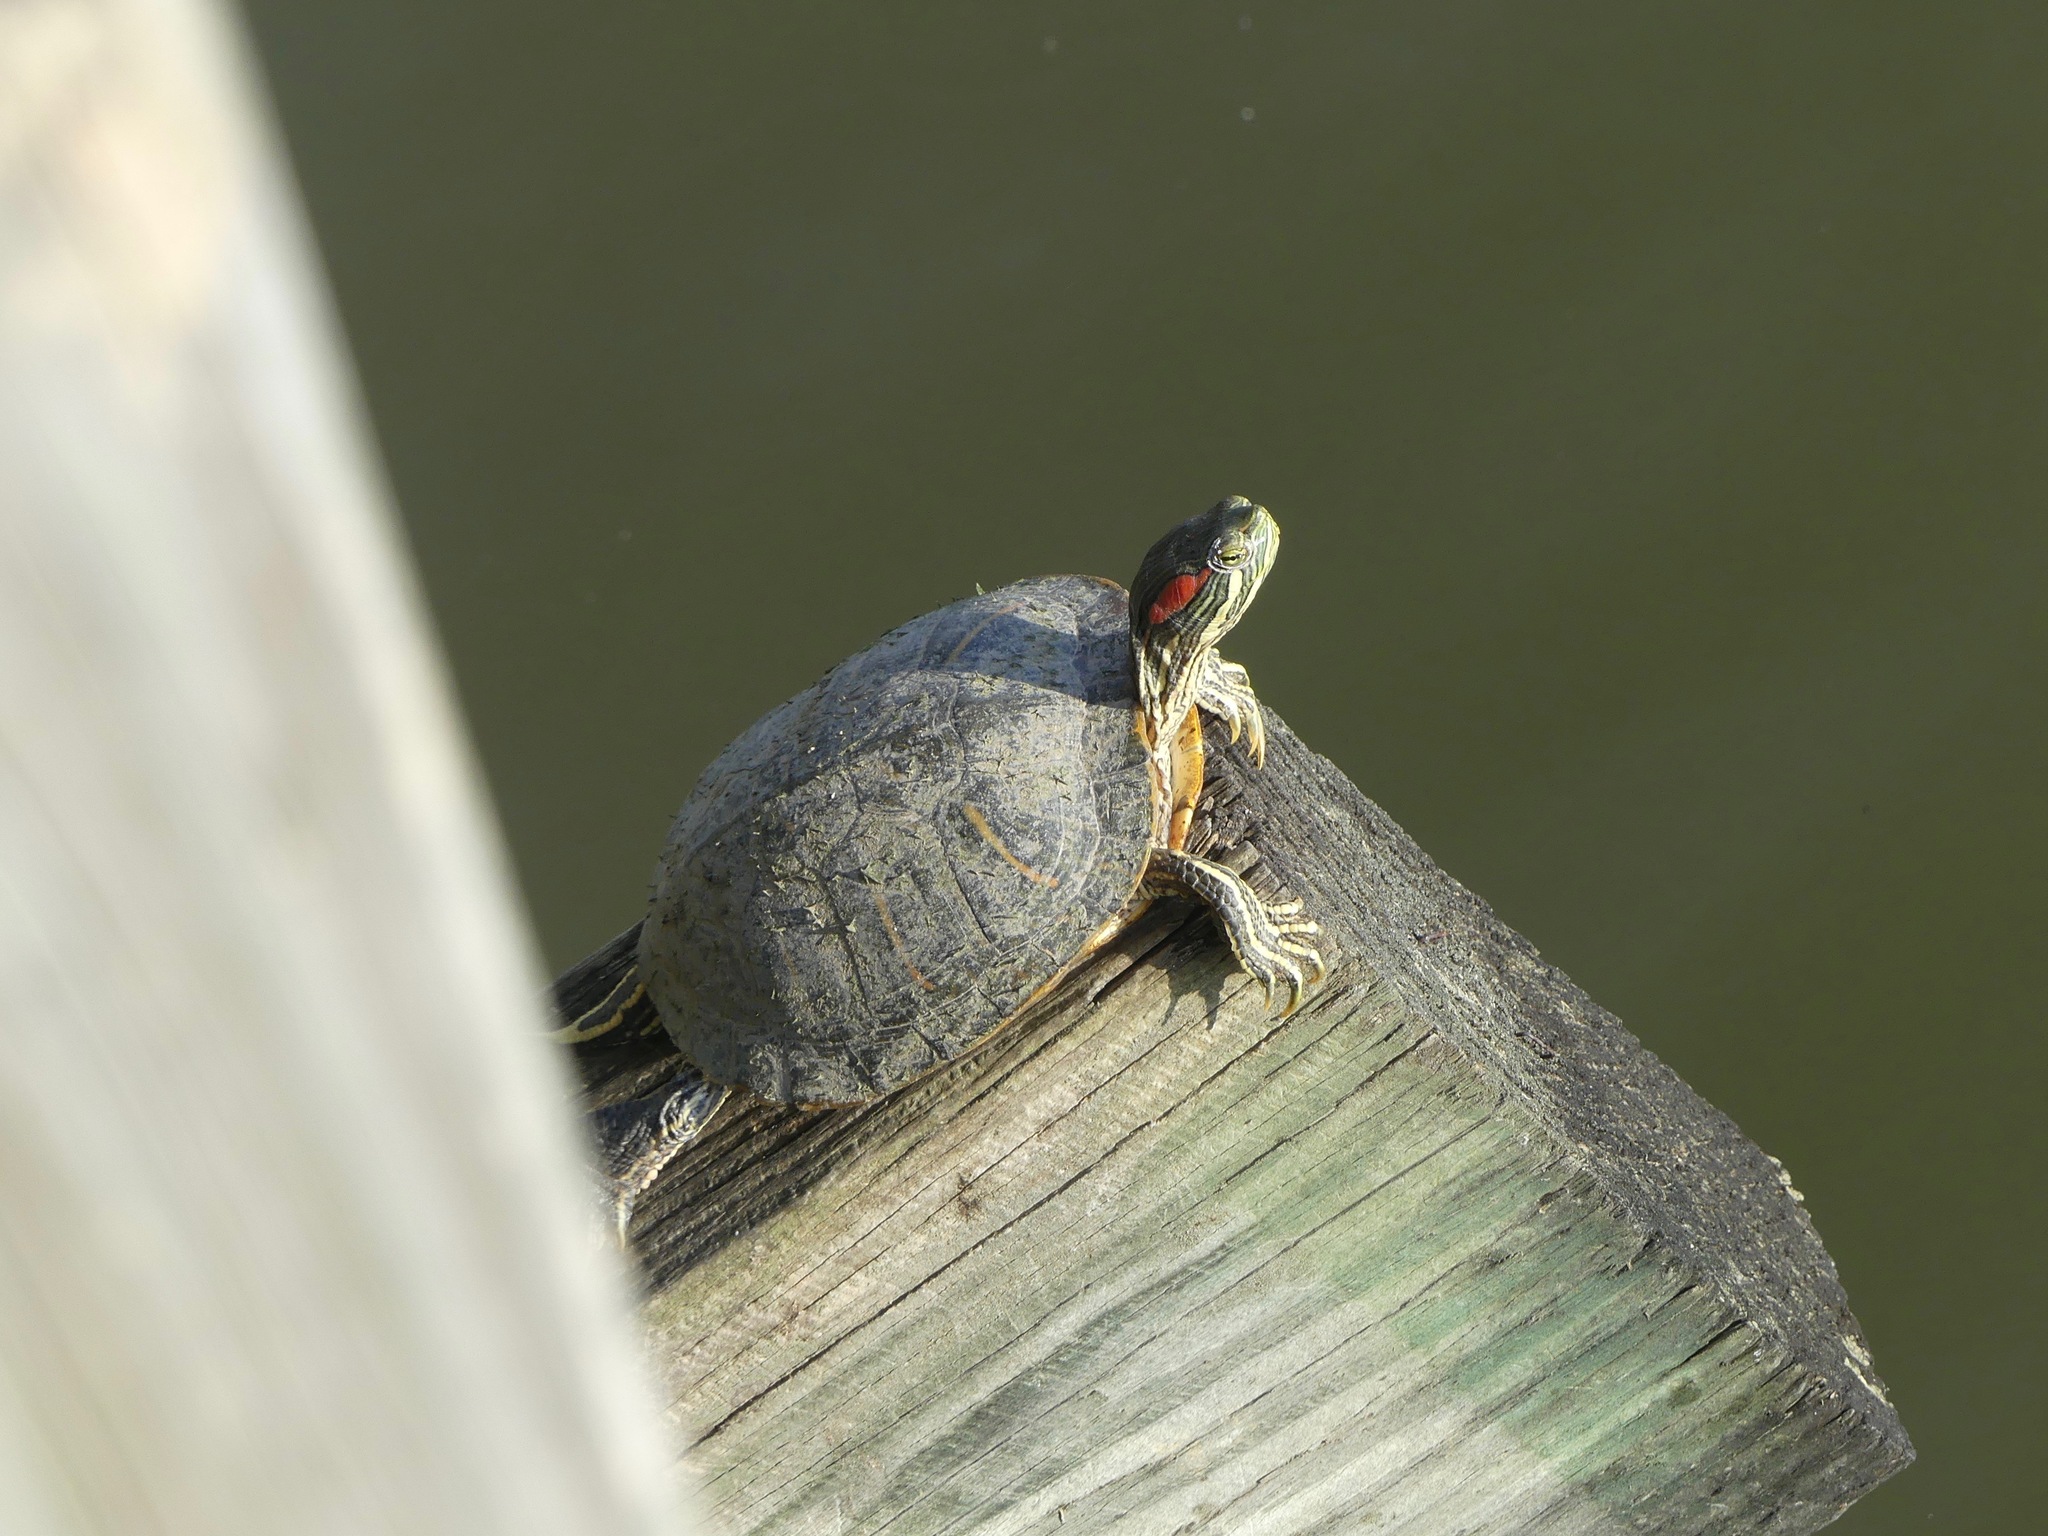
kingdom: Animalia
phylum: Chordata
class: Testudines
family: Emydidae
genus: Trachemys
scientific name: Trachemys scripta
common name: Slider
